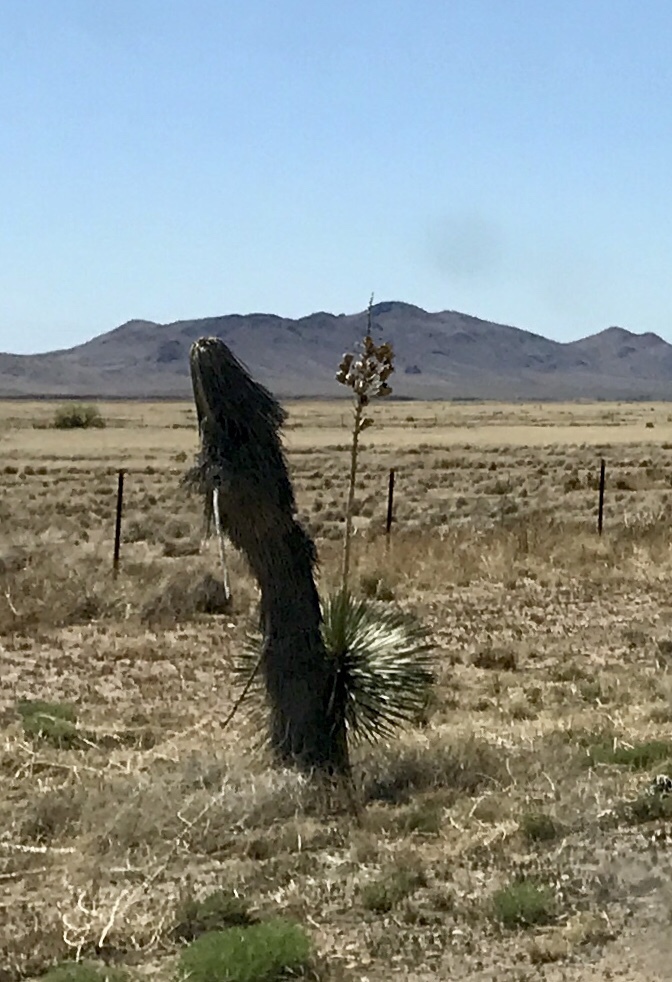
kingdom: Plantae
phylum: Tracheophyta
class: Liliopsida
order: Asparagales
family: Asparagaceae
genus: Yucca
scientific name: Yucca elata
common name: Palmella
